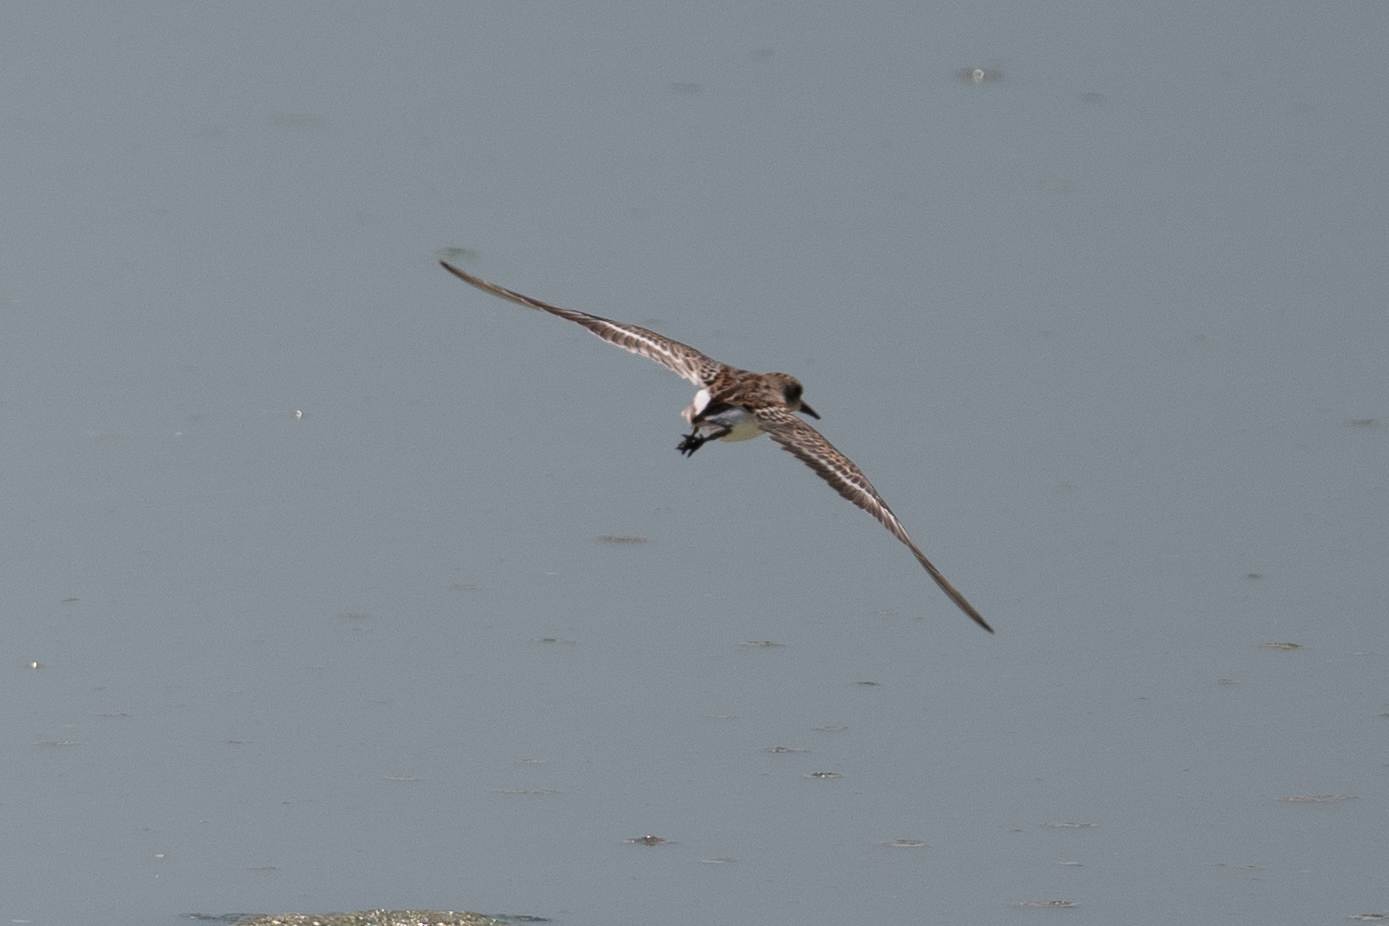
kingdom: Animalia
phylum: Chordata
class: Aves
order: Charadriiformes
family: Scolopacidae
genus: Calidris
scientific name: Calidris mauri
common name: Western sandpiper
